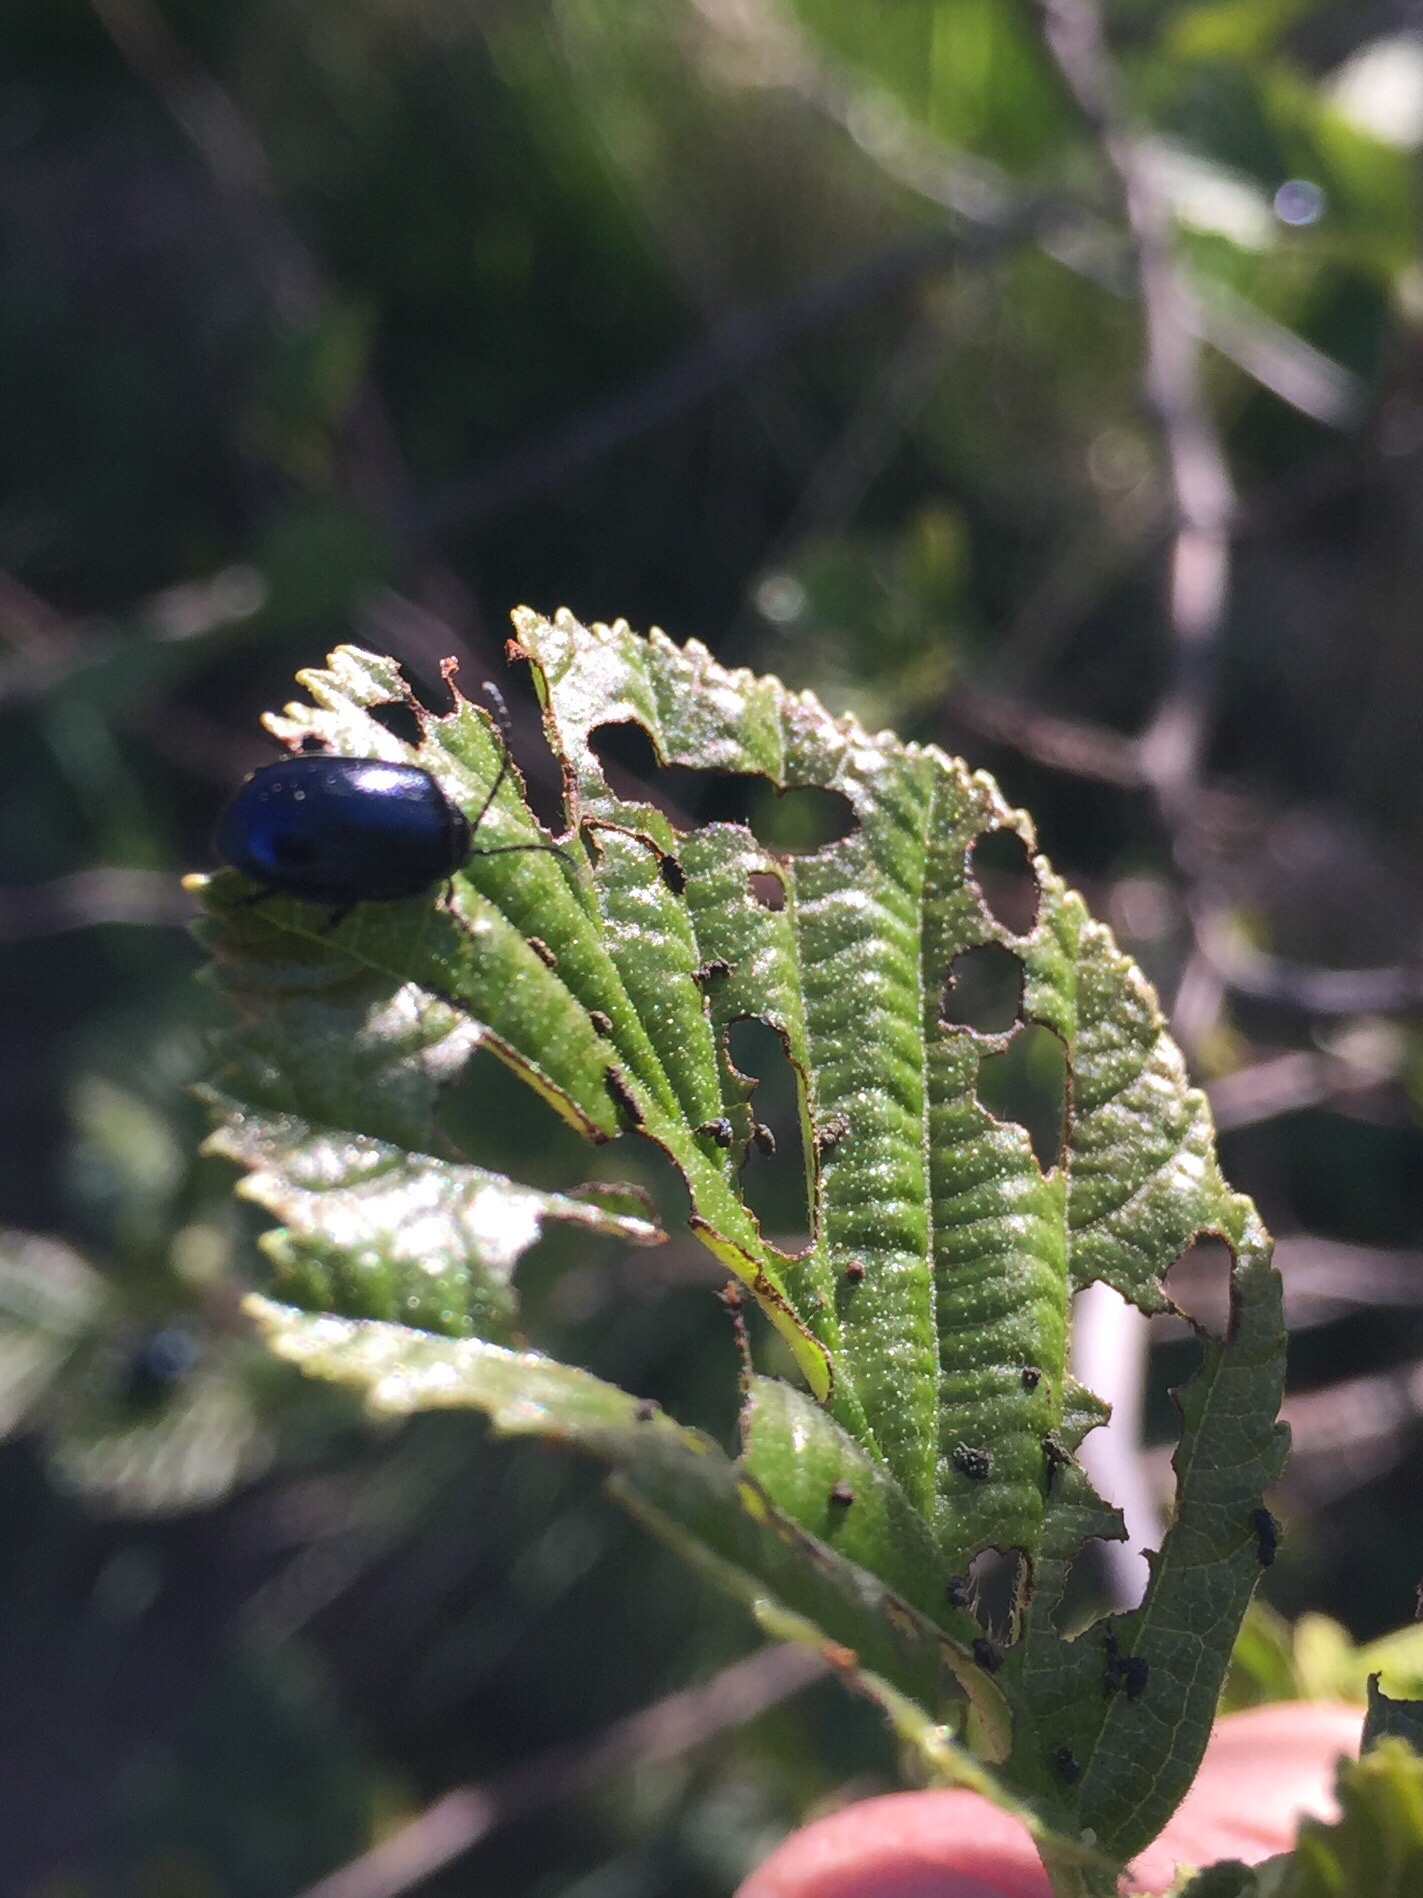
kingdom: Animalia
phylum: Arthropoda
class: Insecta
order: Coleoptera
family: Chrysomelidae
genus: Agelastica
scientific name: Agelastica alni
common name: Alder leaf beetle
